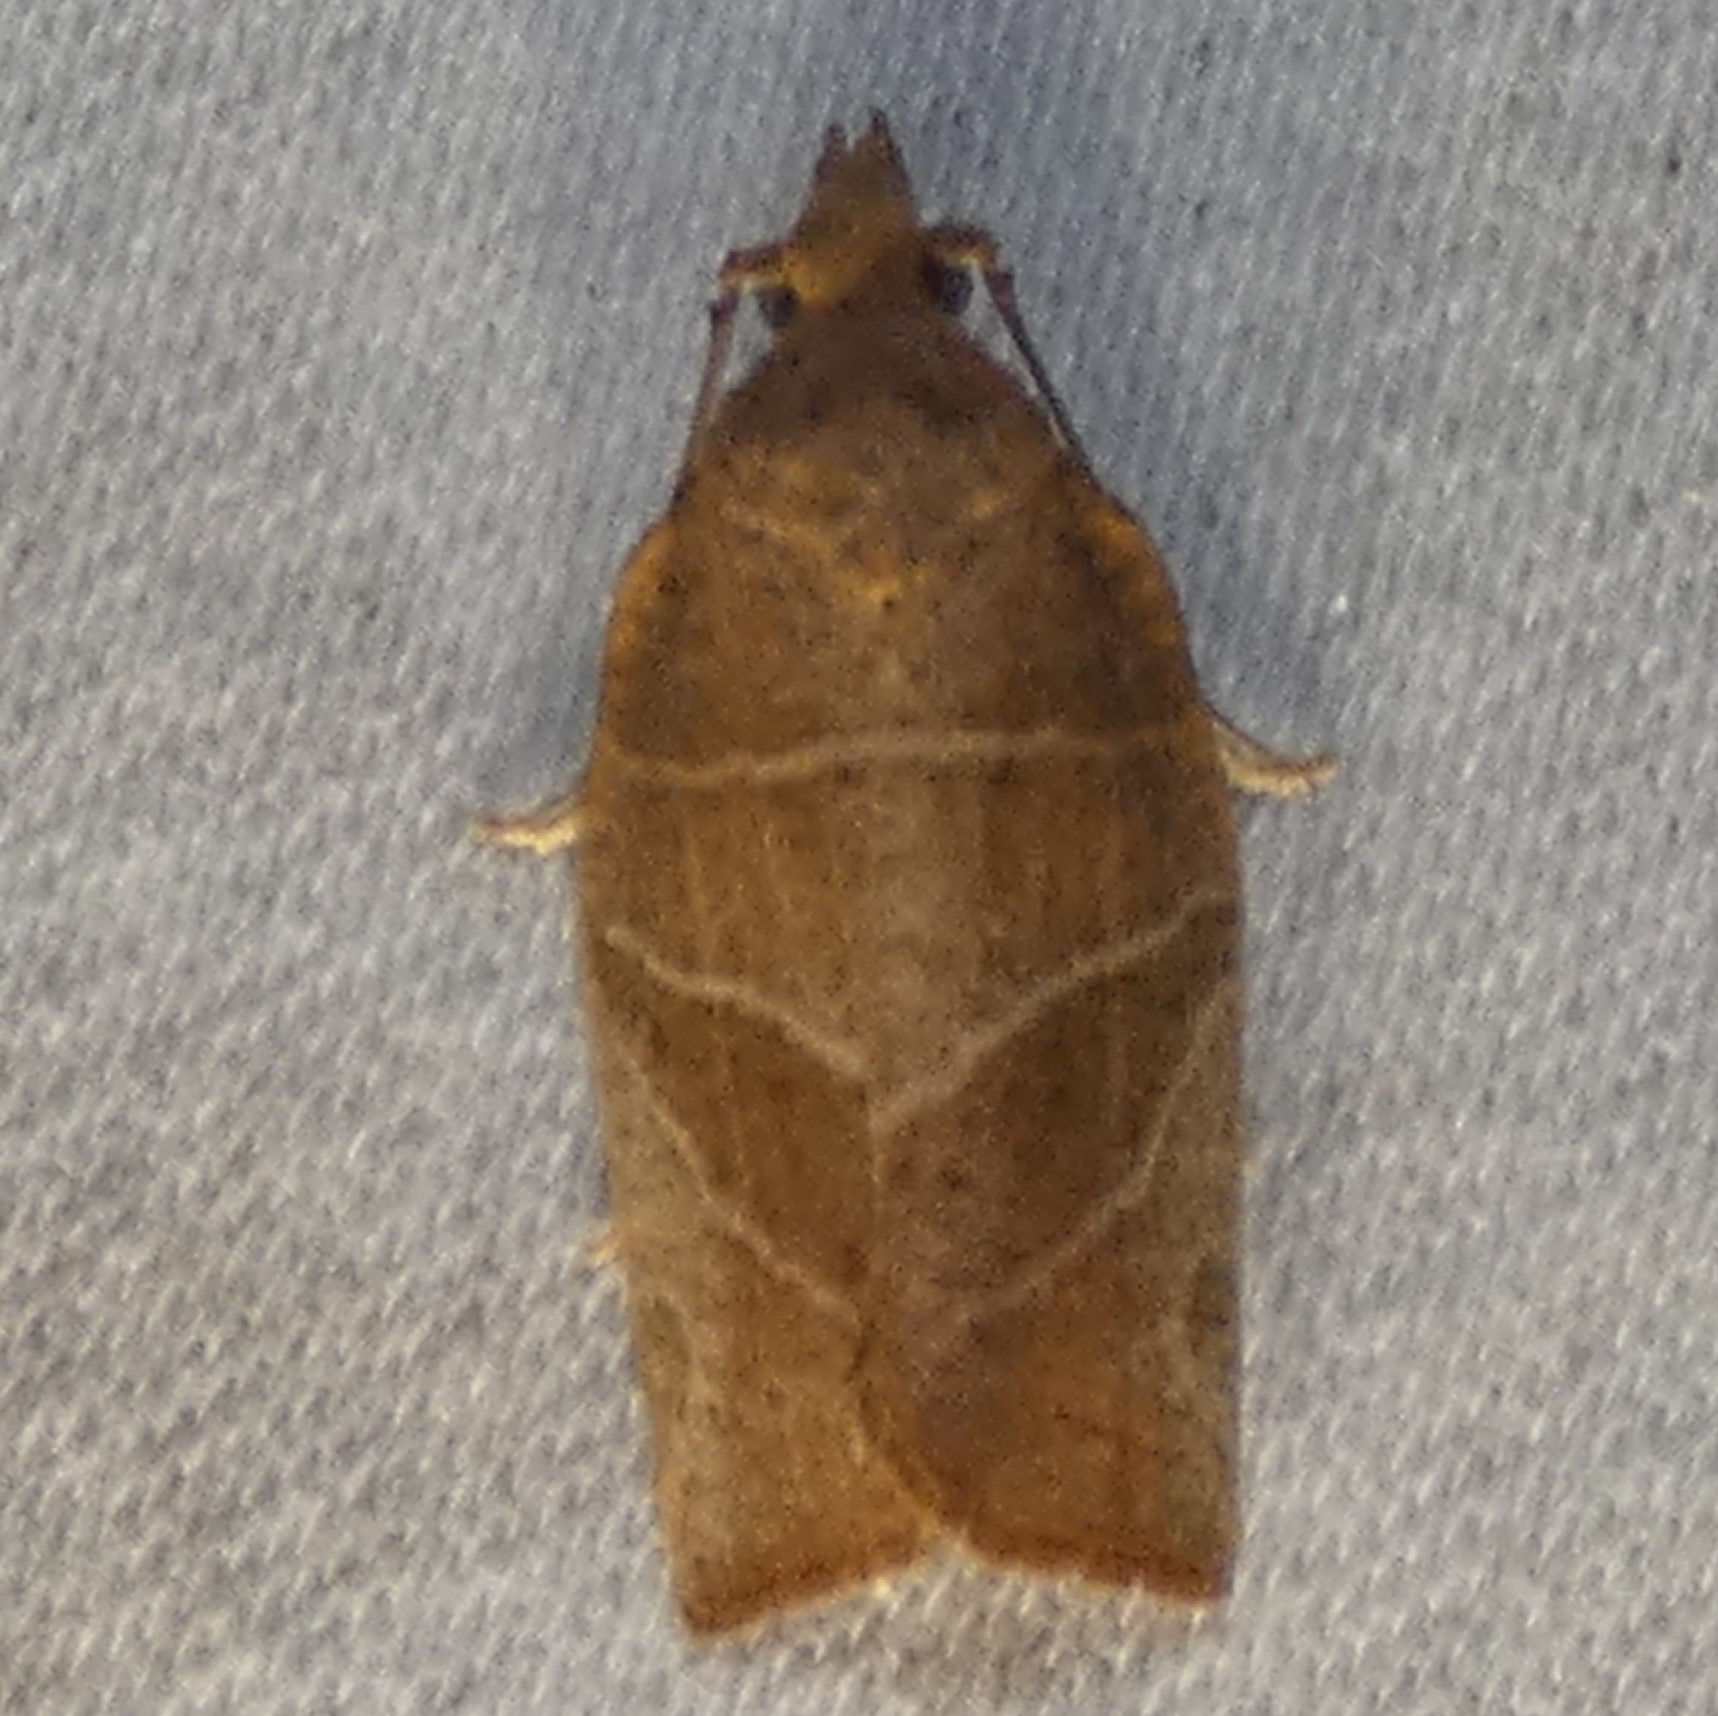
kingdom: Animalia
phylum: Arthropoda
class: Insecta
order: Lepidoptera
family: Tortricidae
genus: Pandemis
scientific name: Pandemis limitata
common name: Three-lined leafroller moth
